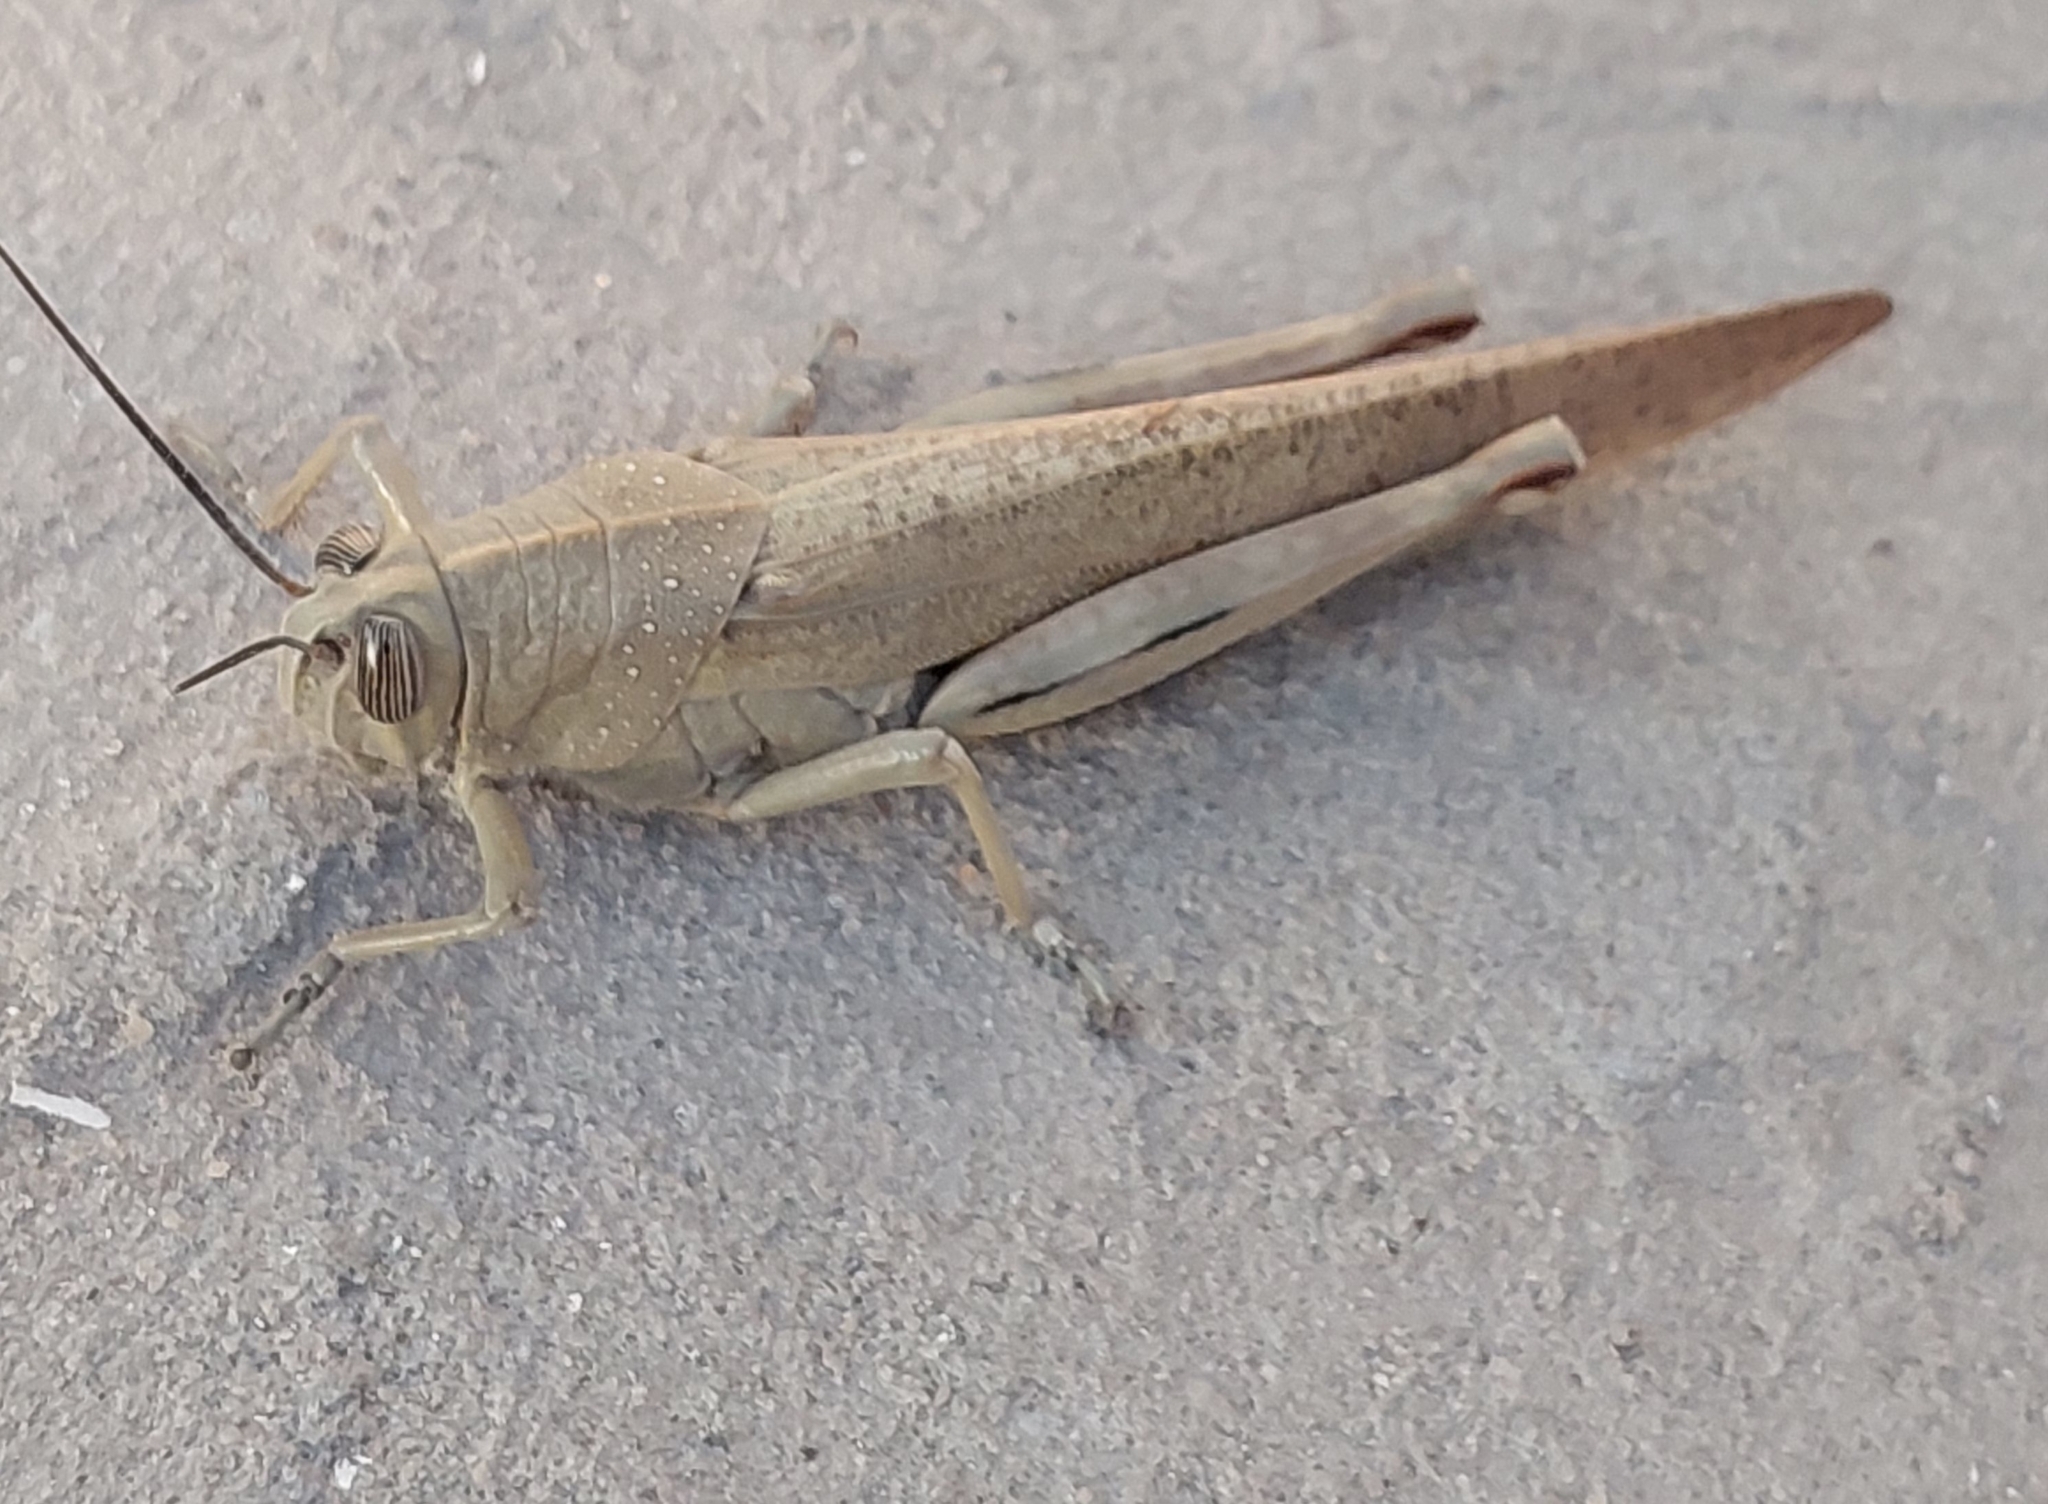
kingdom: Animalia
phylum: Arthropoda
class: Insecta
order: Orthoptera
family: Acrididae
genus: Anacridium
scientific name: Anacridium aegyptium
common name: Egyptian grasshopper
